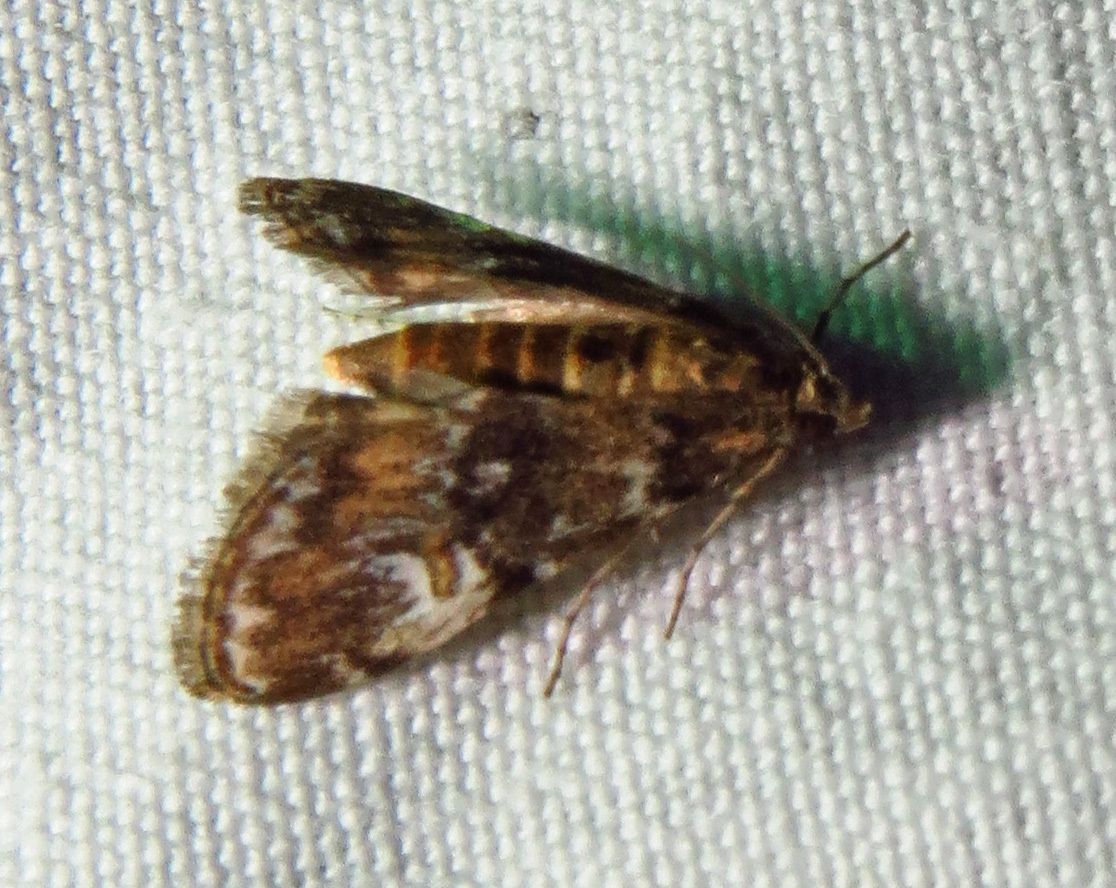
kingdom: Animalia
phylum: Arthropoda
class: Insecta
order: Lepidoptera
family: Crambidae
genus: Elophila
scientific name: Elophila obliteralis
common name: Waterlily leafcutter moth
